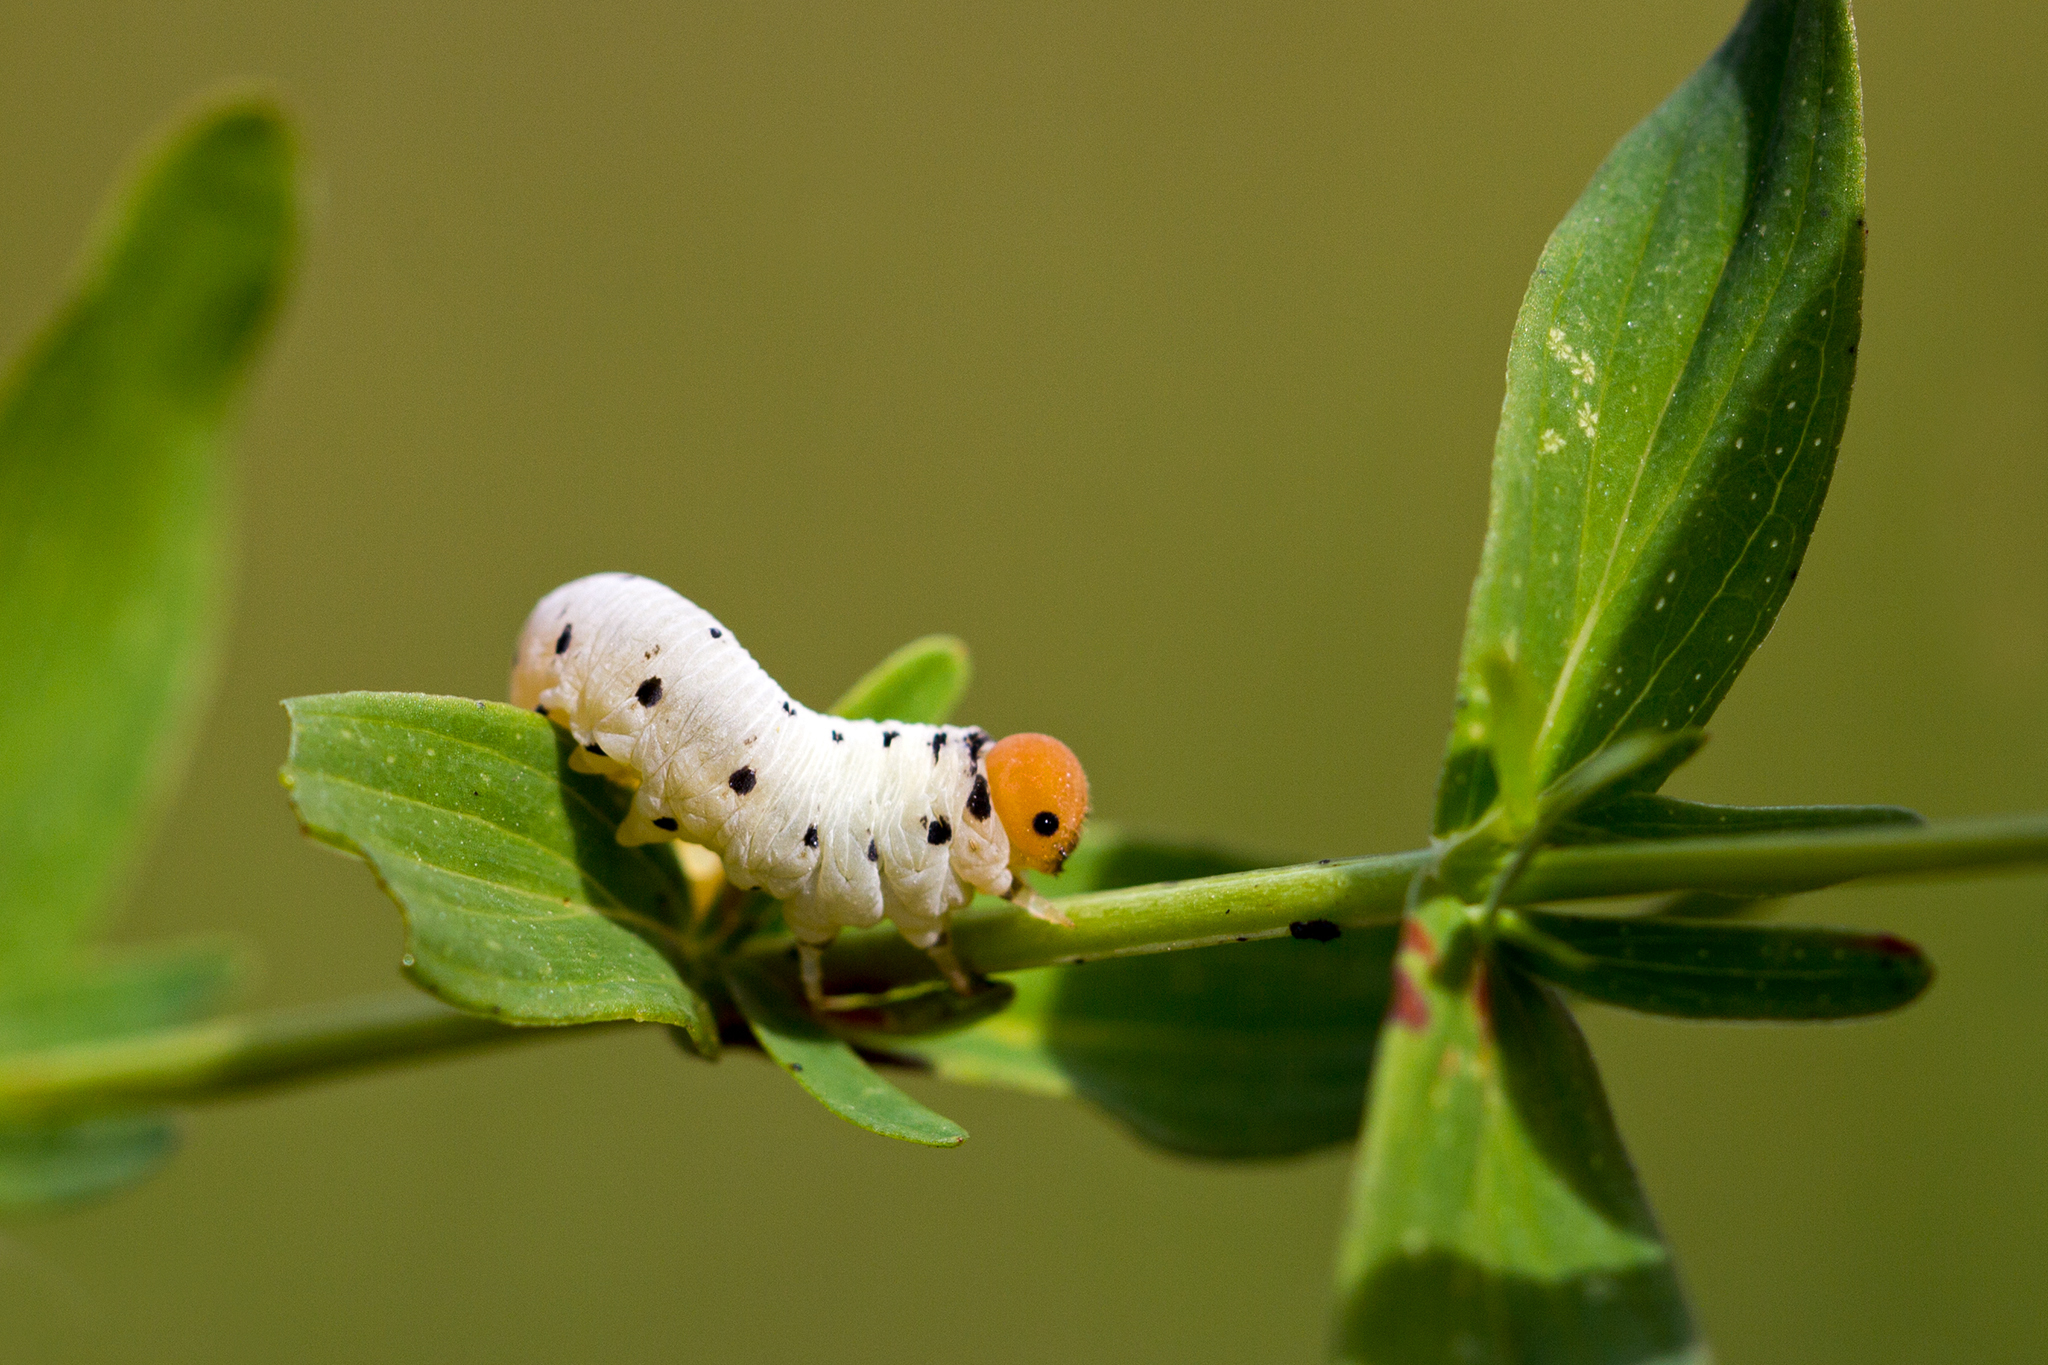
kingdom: Animalia
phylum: Arthropoda
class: Insecta
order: Hymenoptera
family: Tenthredinidae
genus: Tenthredo
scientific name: Tenthredo zona
